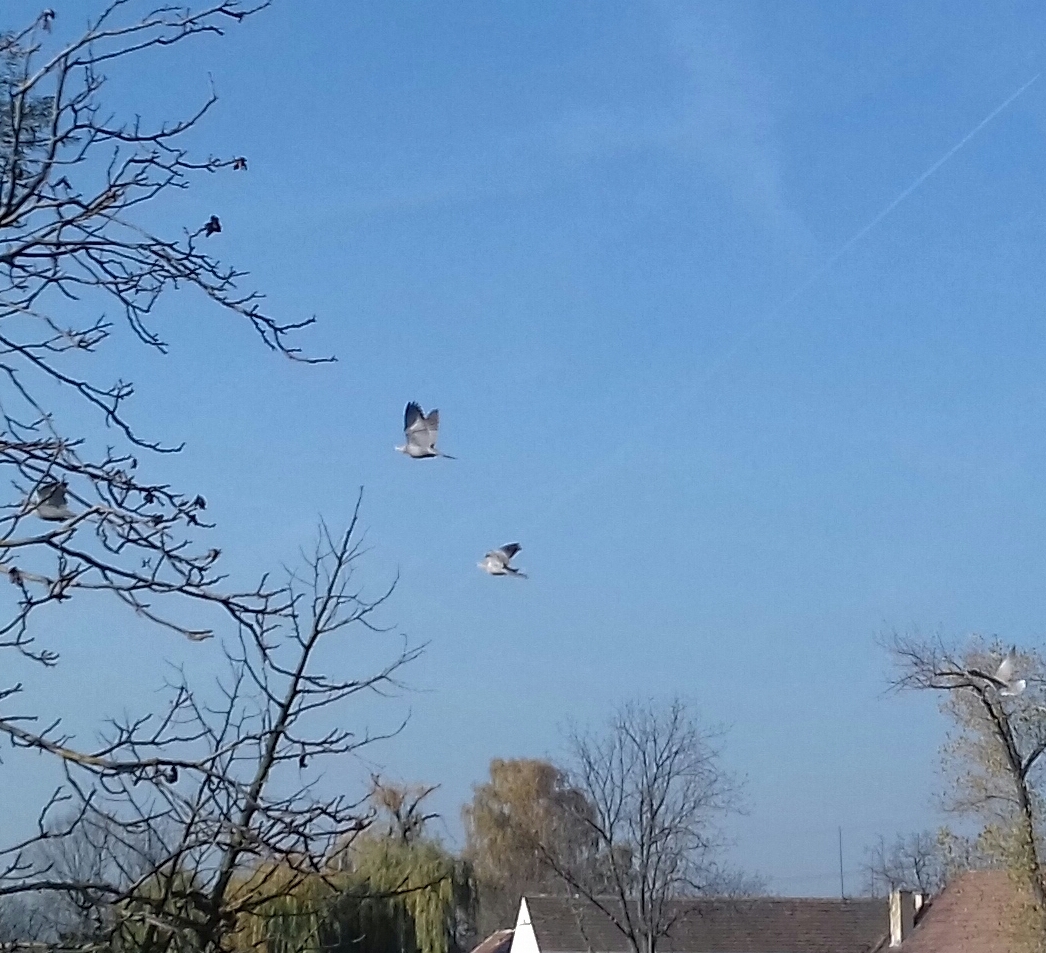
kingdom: Animalia
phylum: Chordata
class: Aves
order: Columbiformes
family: Columbidae
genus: Streptopelia
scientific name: Streptopelia decaocto
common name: Eurasian collared dove
